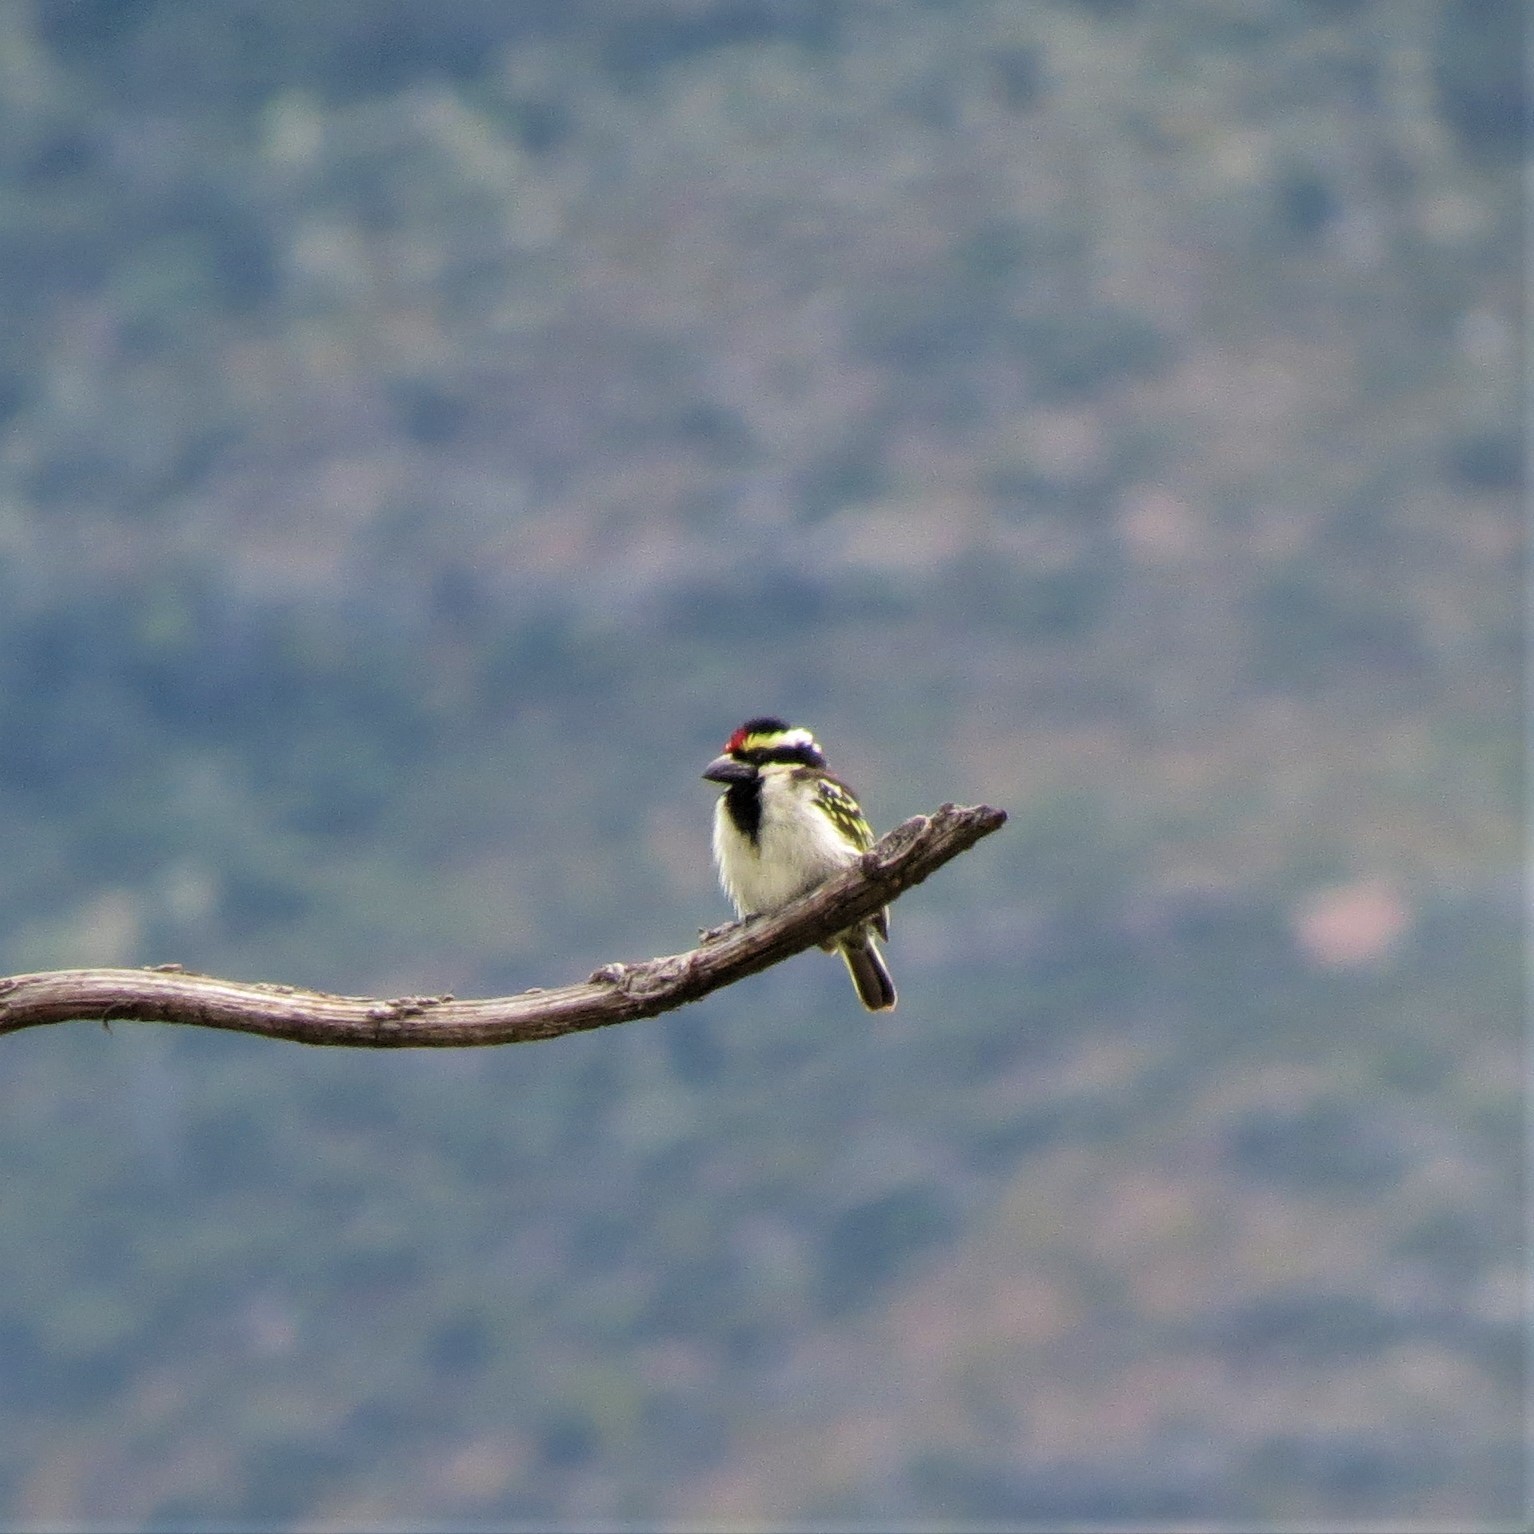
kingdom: Animalia
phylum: Chordata
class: Aves
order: Piciformes
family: Lybiidae
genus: Tricholaema
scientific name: Tricholaema leucomelas
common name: Acacia pied barbet
